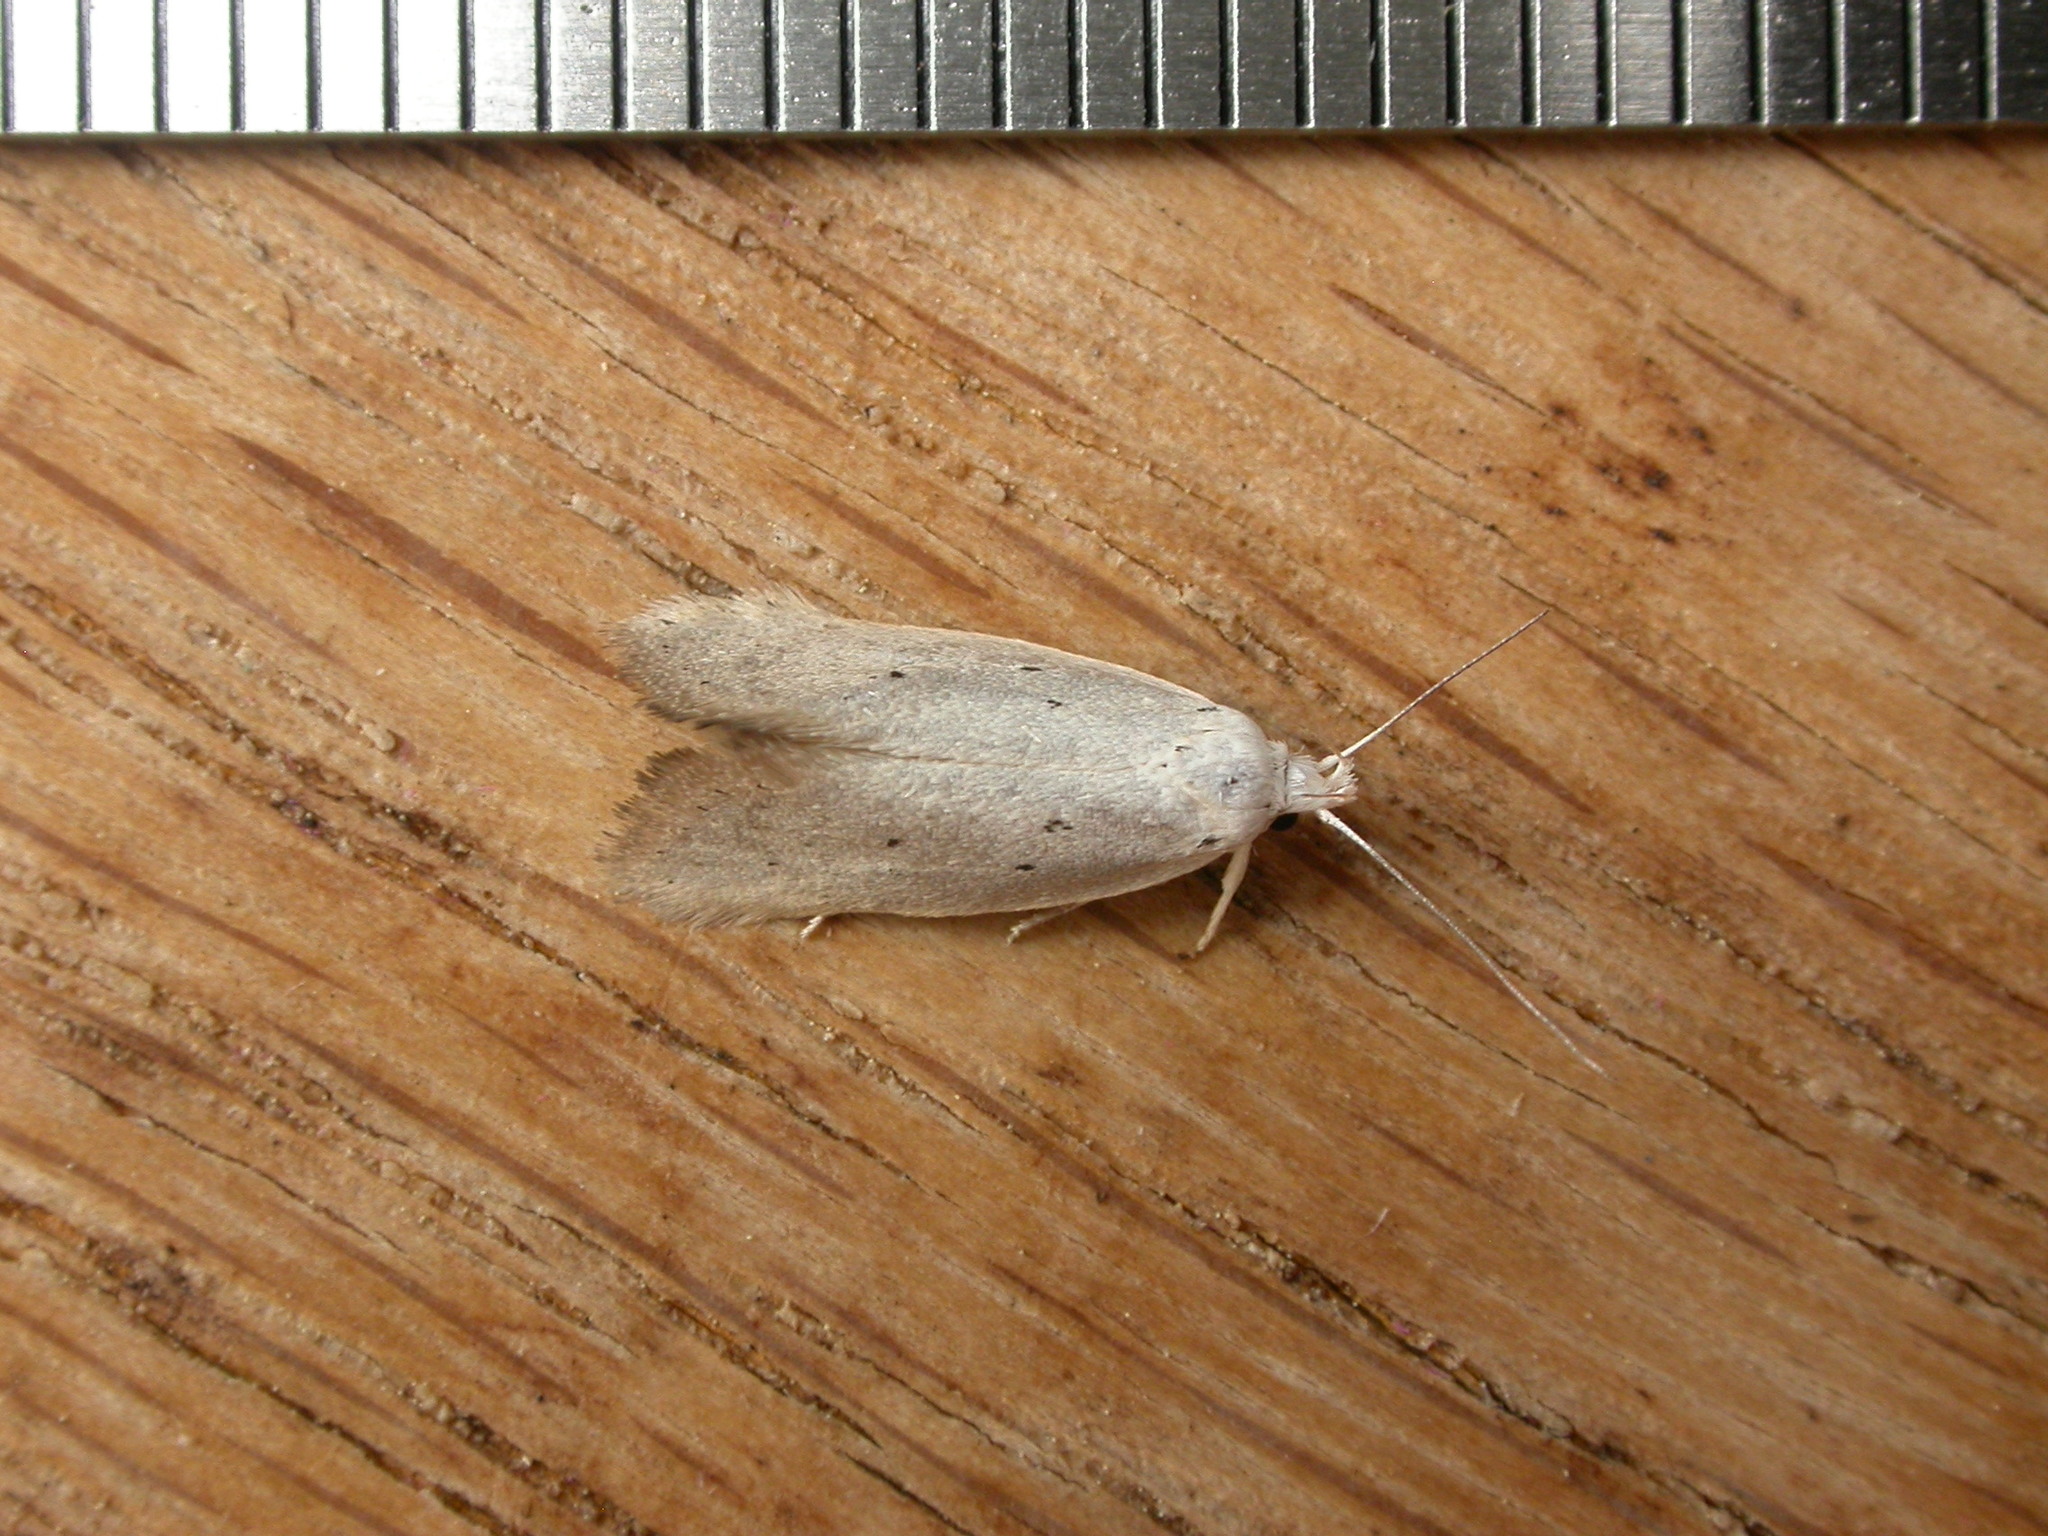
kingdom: Animalia
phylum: Arthropoda
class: Insecta
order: Lepidoptera
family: Oecophoridae
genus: Thalerotricha
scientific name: Thalerotricha mylicella
